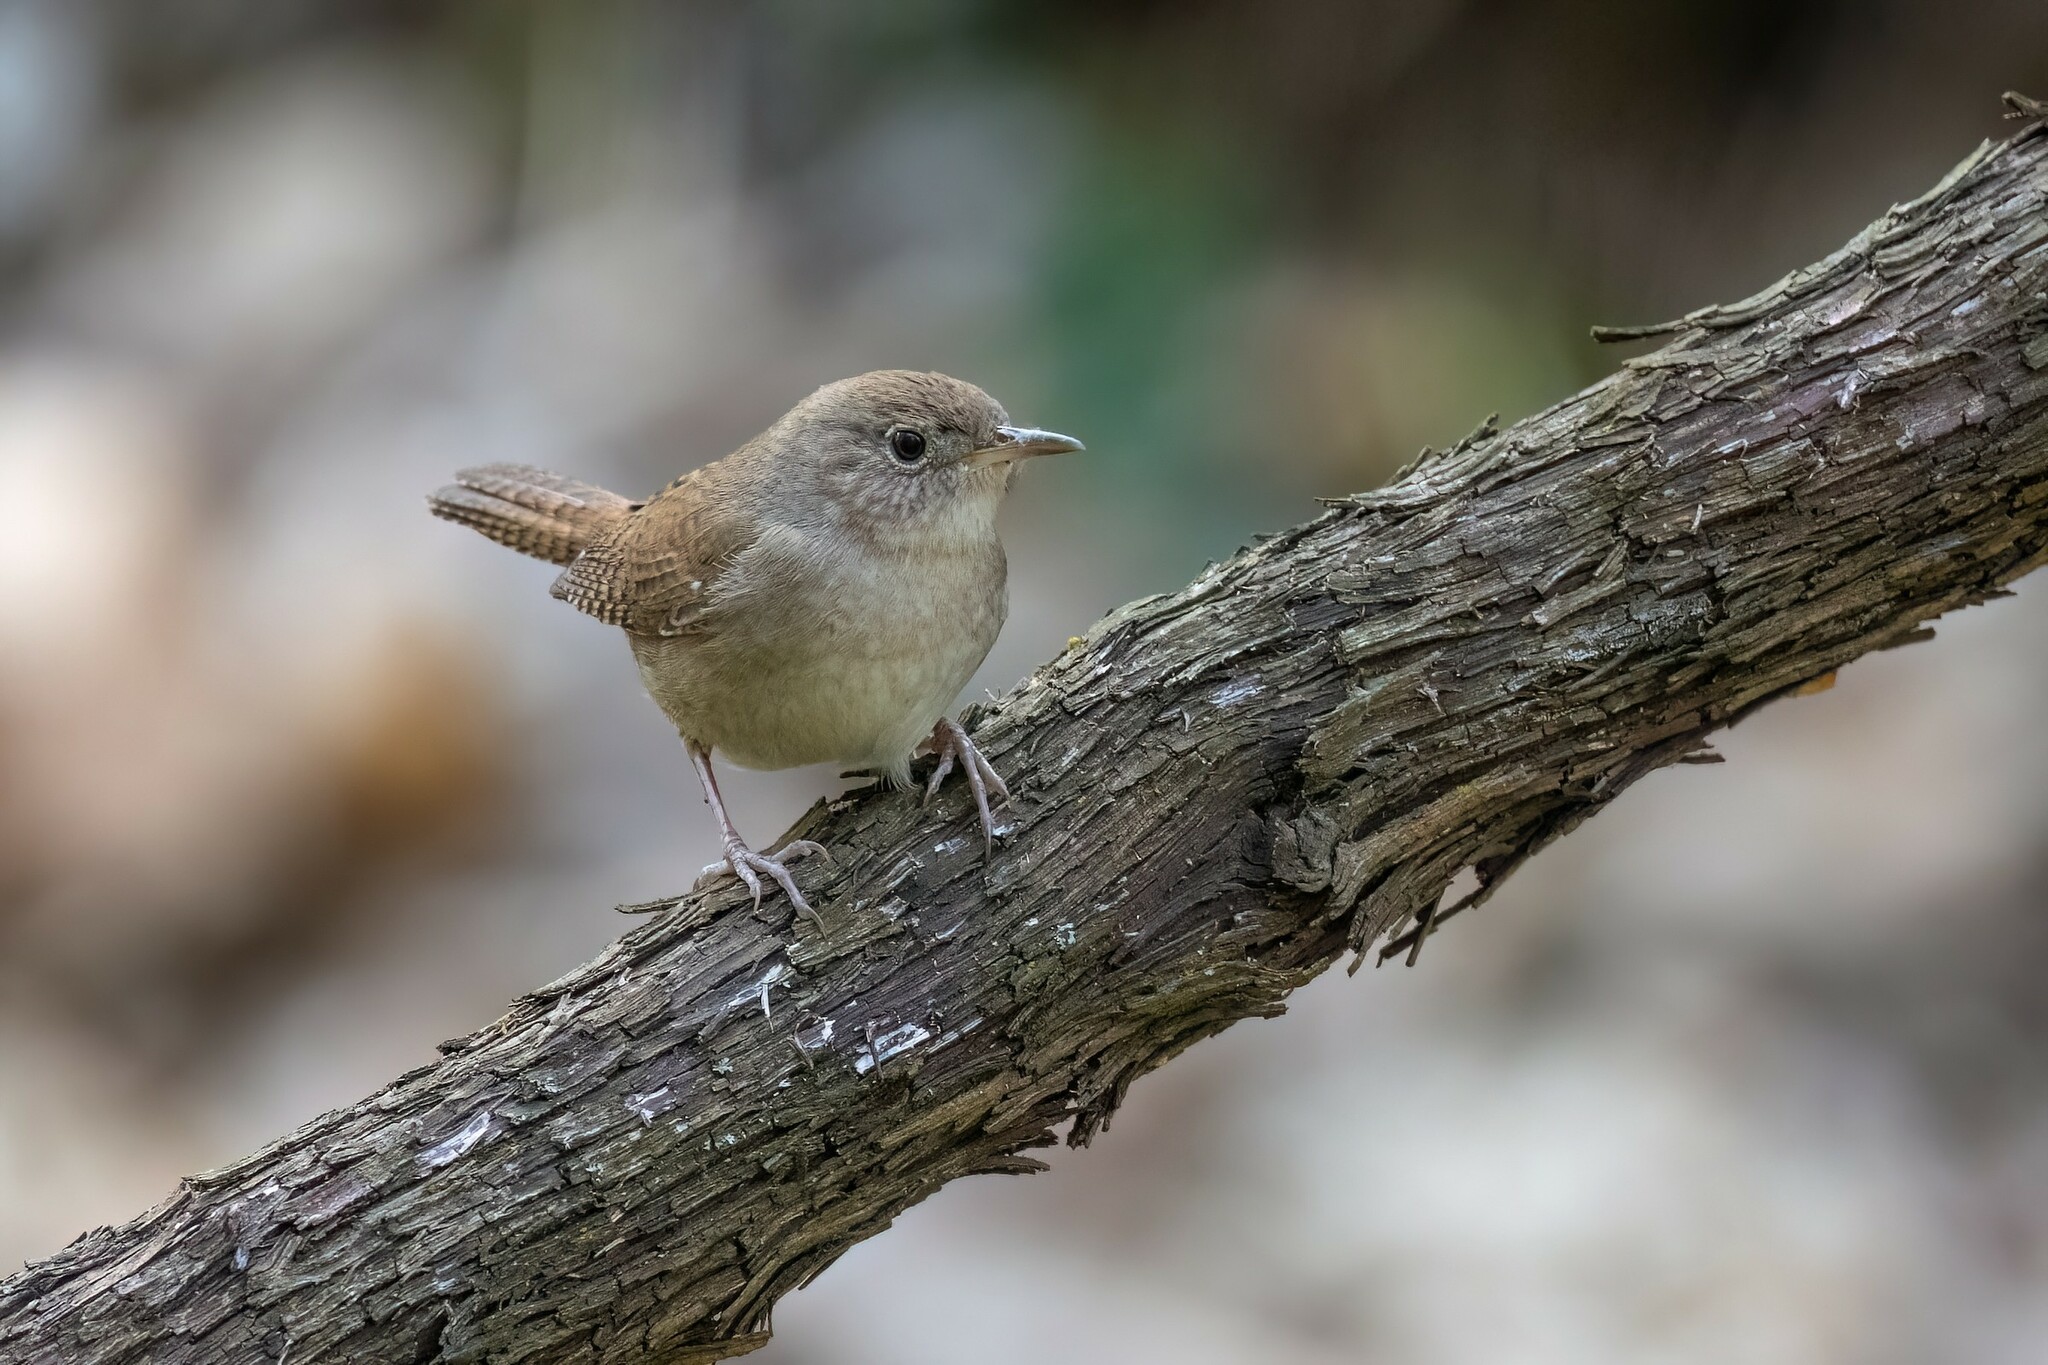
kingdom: Animalia
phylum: Chordata
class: Aves
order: Passeriformes
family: Troglodytidae
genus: Troglodytes
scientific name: Troglodytes aedon
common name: House wren
